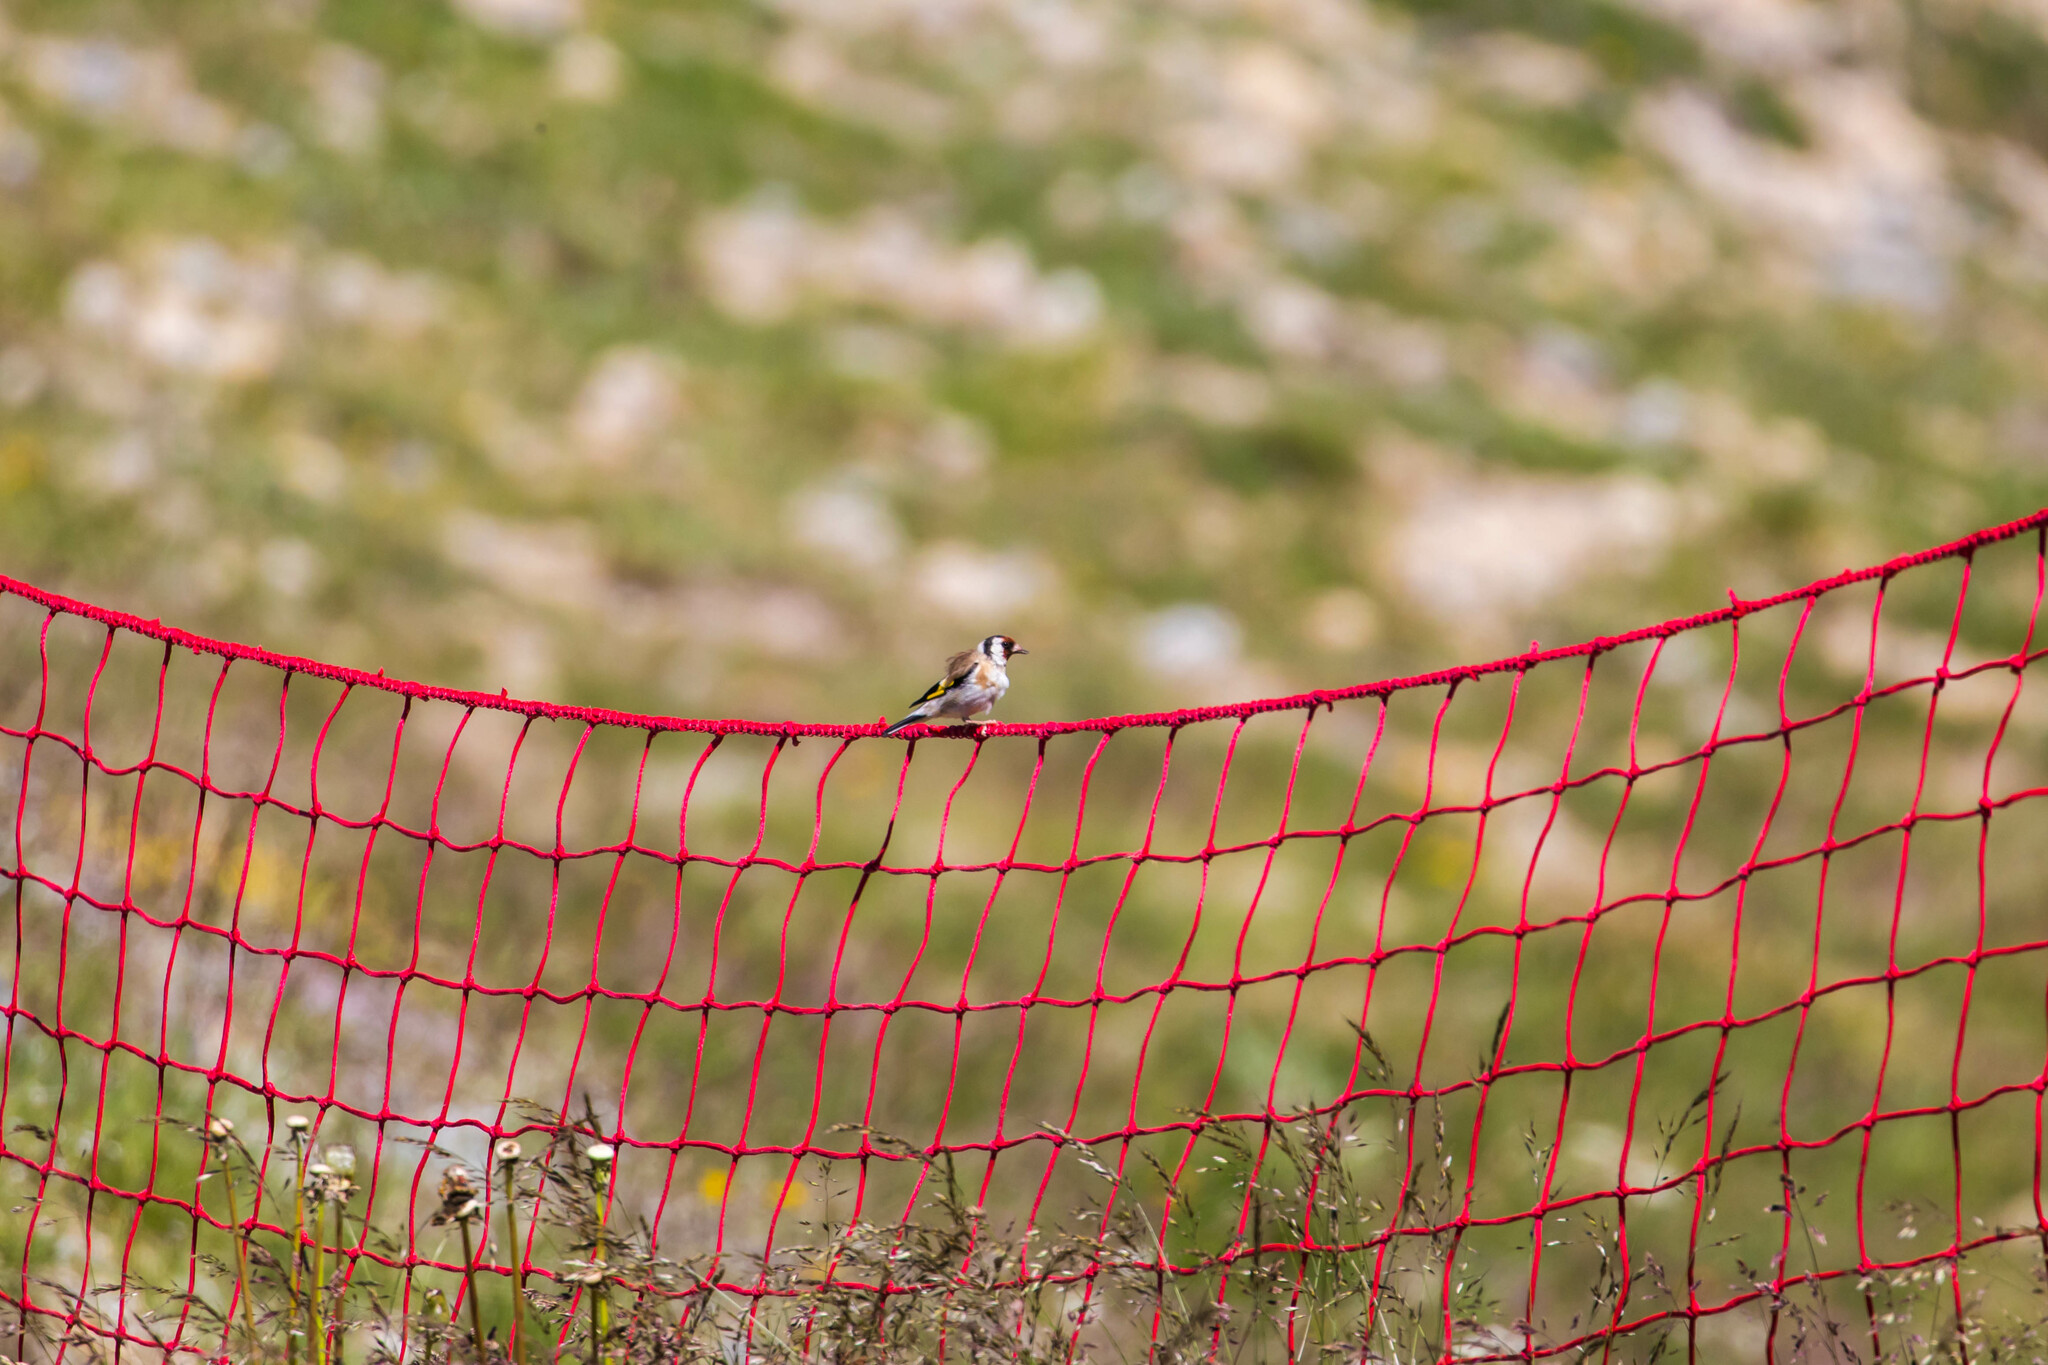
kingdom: Animalia
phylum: Chordata
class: Aves
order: Passeriformes
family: Fringillidae
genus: Carduelis
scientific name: Carduelis carduelis
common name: European goldfinch
